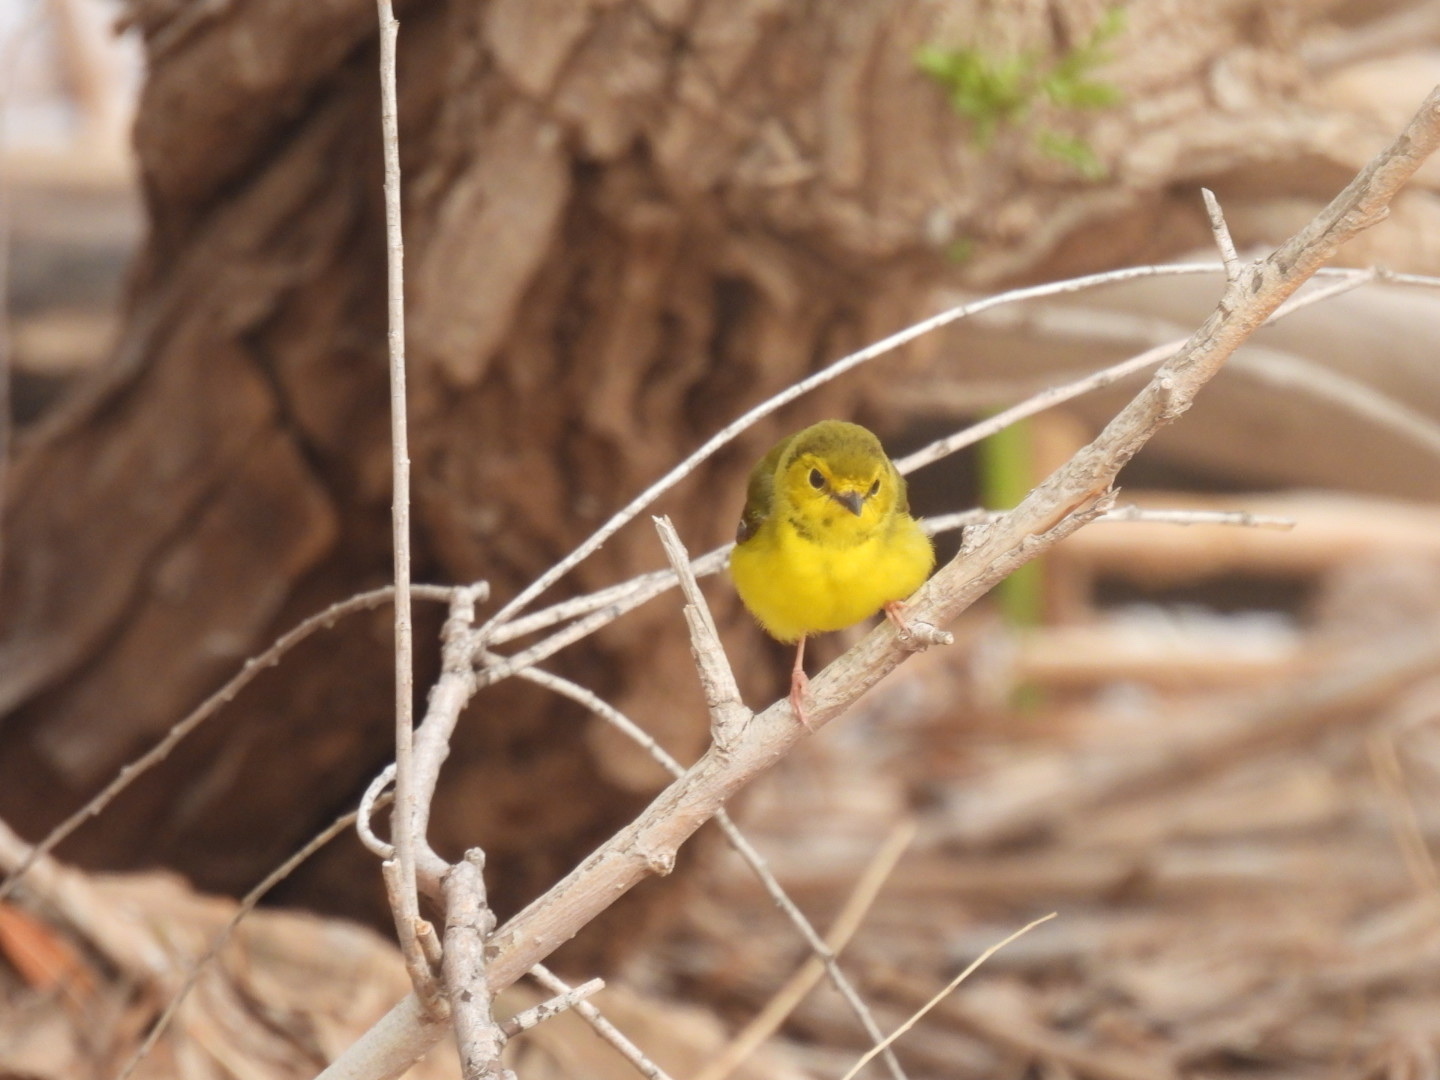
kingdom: Animalia
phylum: Chordata
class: Aves
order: Passeriformes
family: Parulidae
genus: Setophaga
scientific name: Setophaga citrina
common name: Hooded warbler
